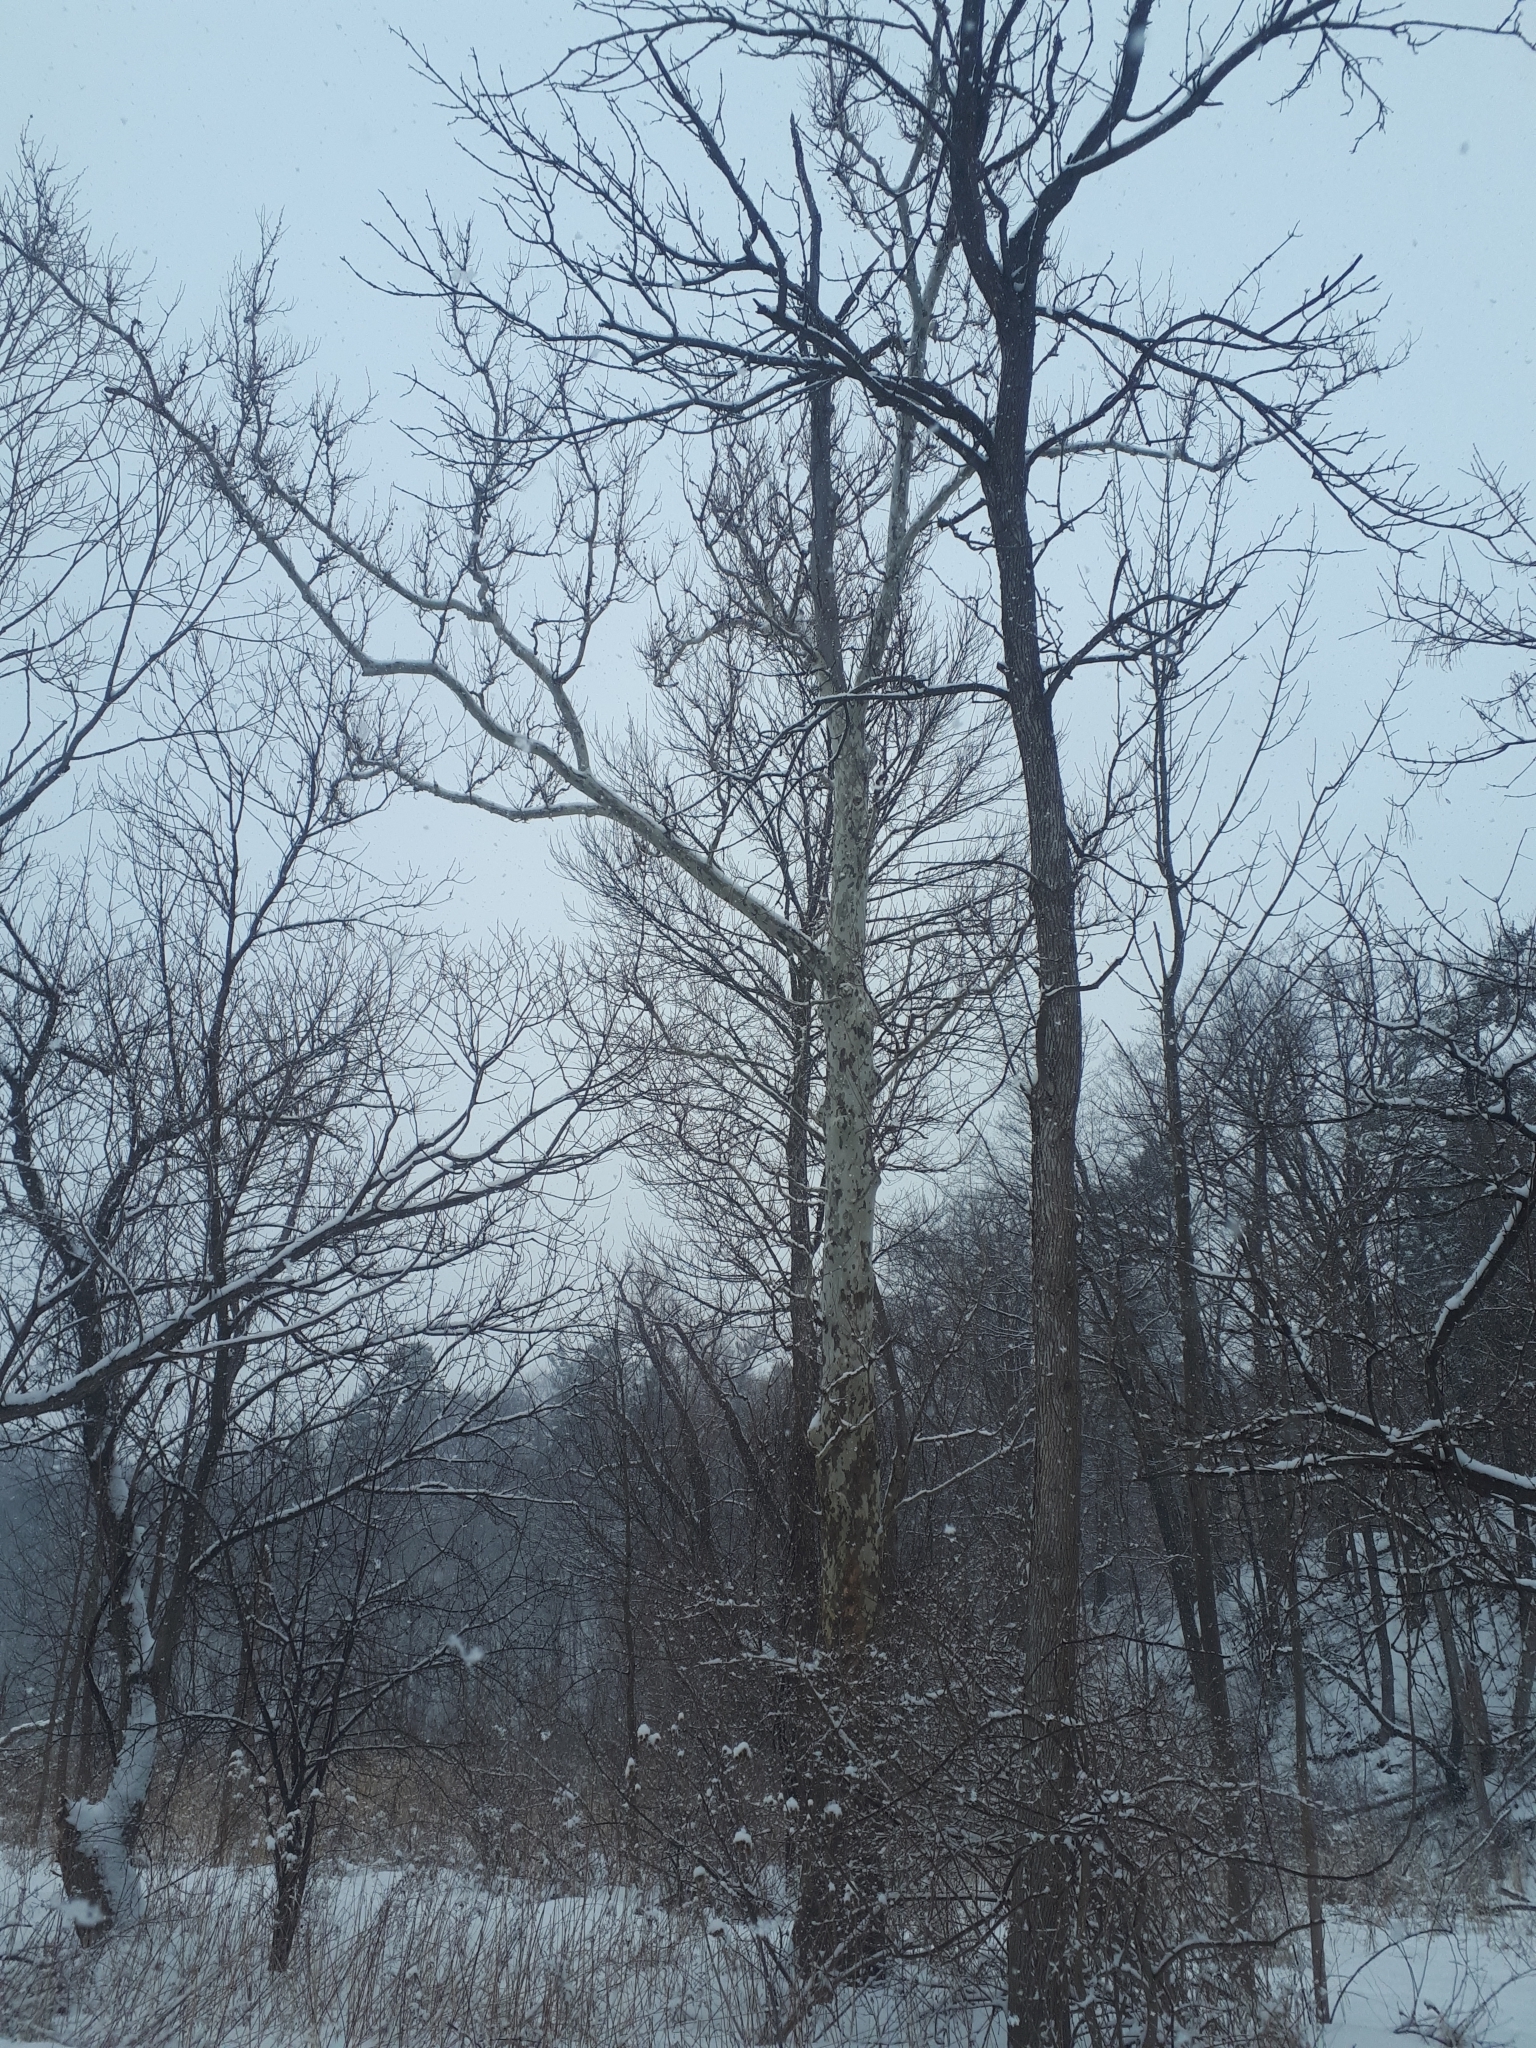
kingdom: Plantae
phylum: Tracheophyta
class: Magnoliopsida
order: Proteales
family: Platanaceae
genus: Platanus
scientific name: Platanus occidentalis
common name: American sycamore
